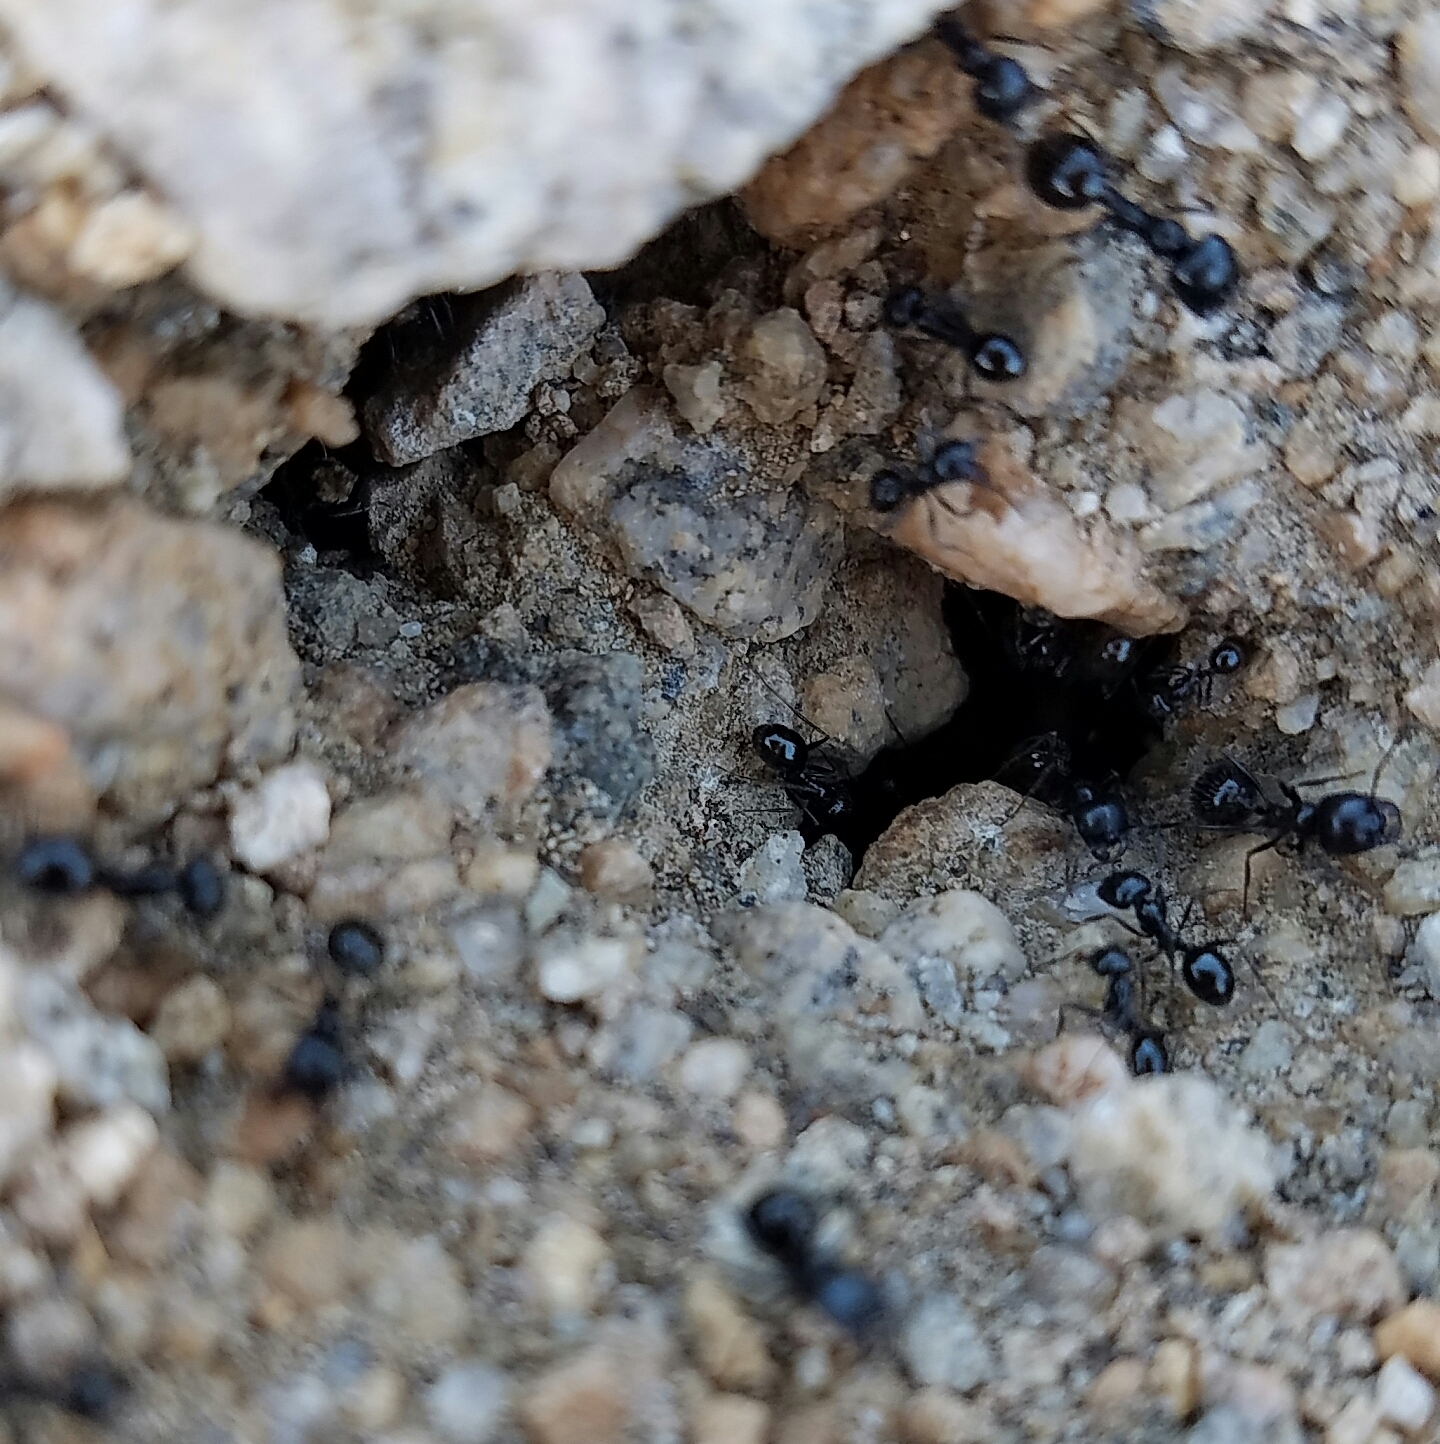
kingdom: Animalia
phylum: Arthropoda
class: Insecta
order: Hymenoptera
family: Formicidae
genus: Messor
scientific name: Messor pergandei
